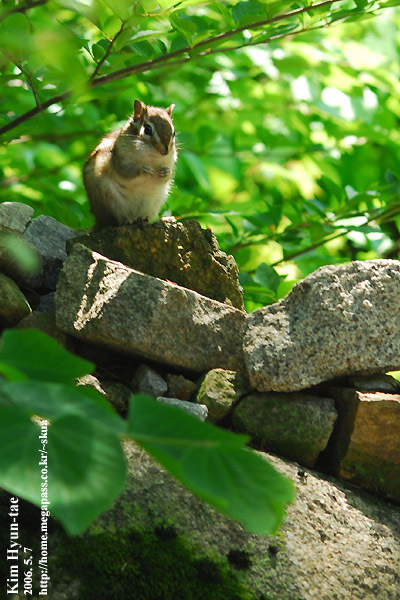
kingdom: Animalia
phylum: Chordata
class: Mammalia
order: Rodentia
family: Sciuridae
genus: Tamias
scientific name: Tamias sibiricus
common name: Siberian chipmunk
